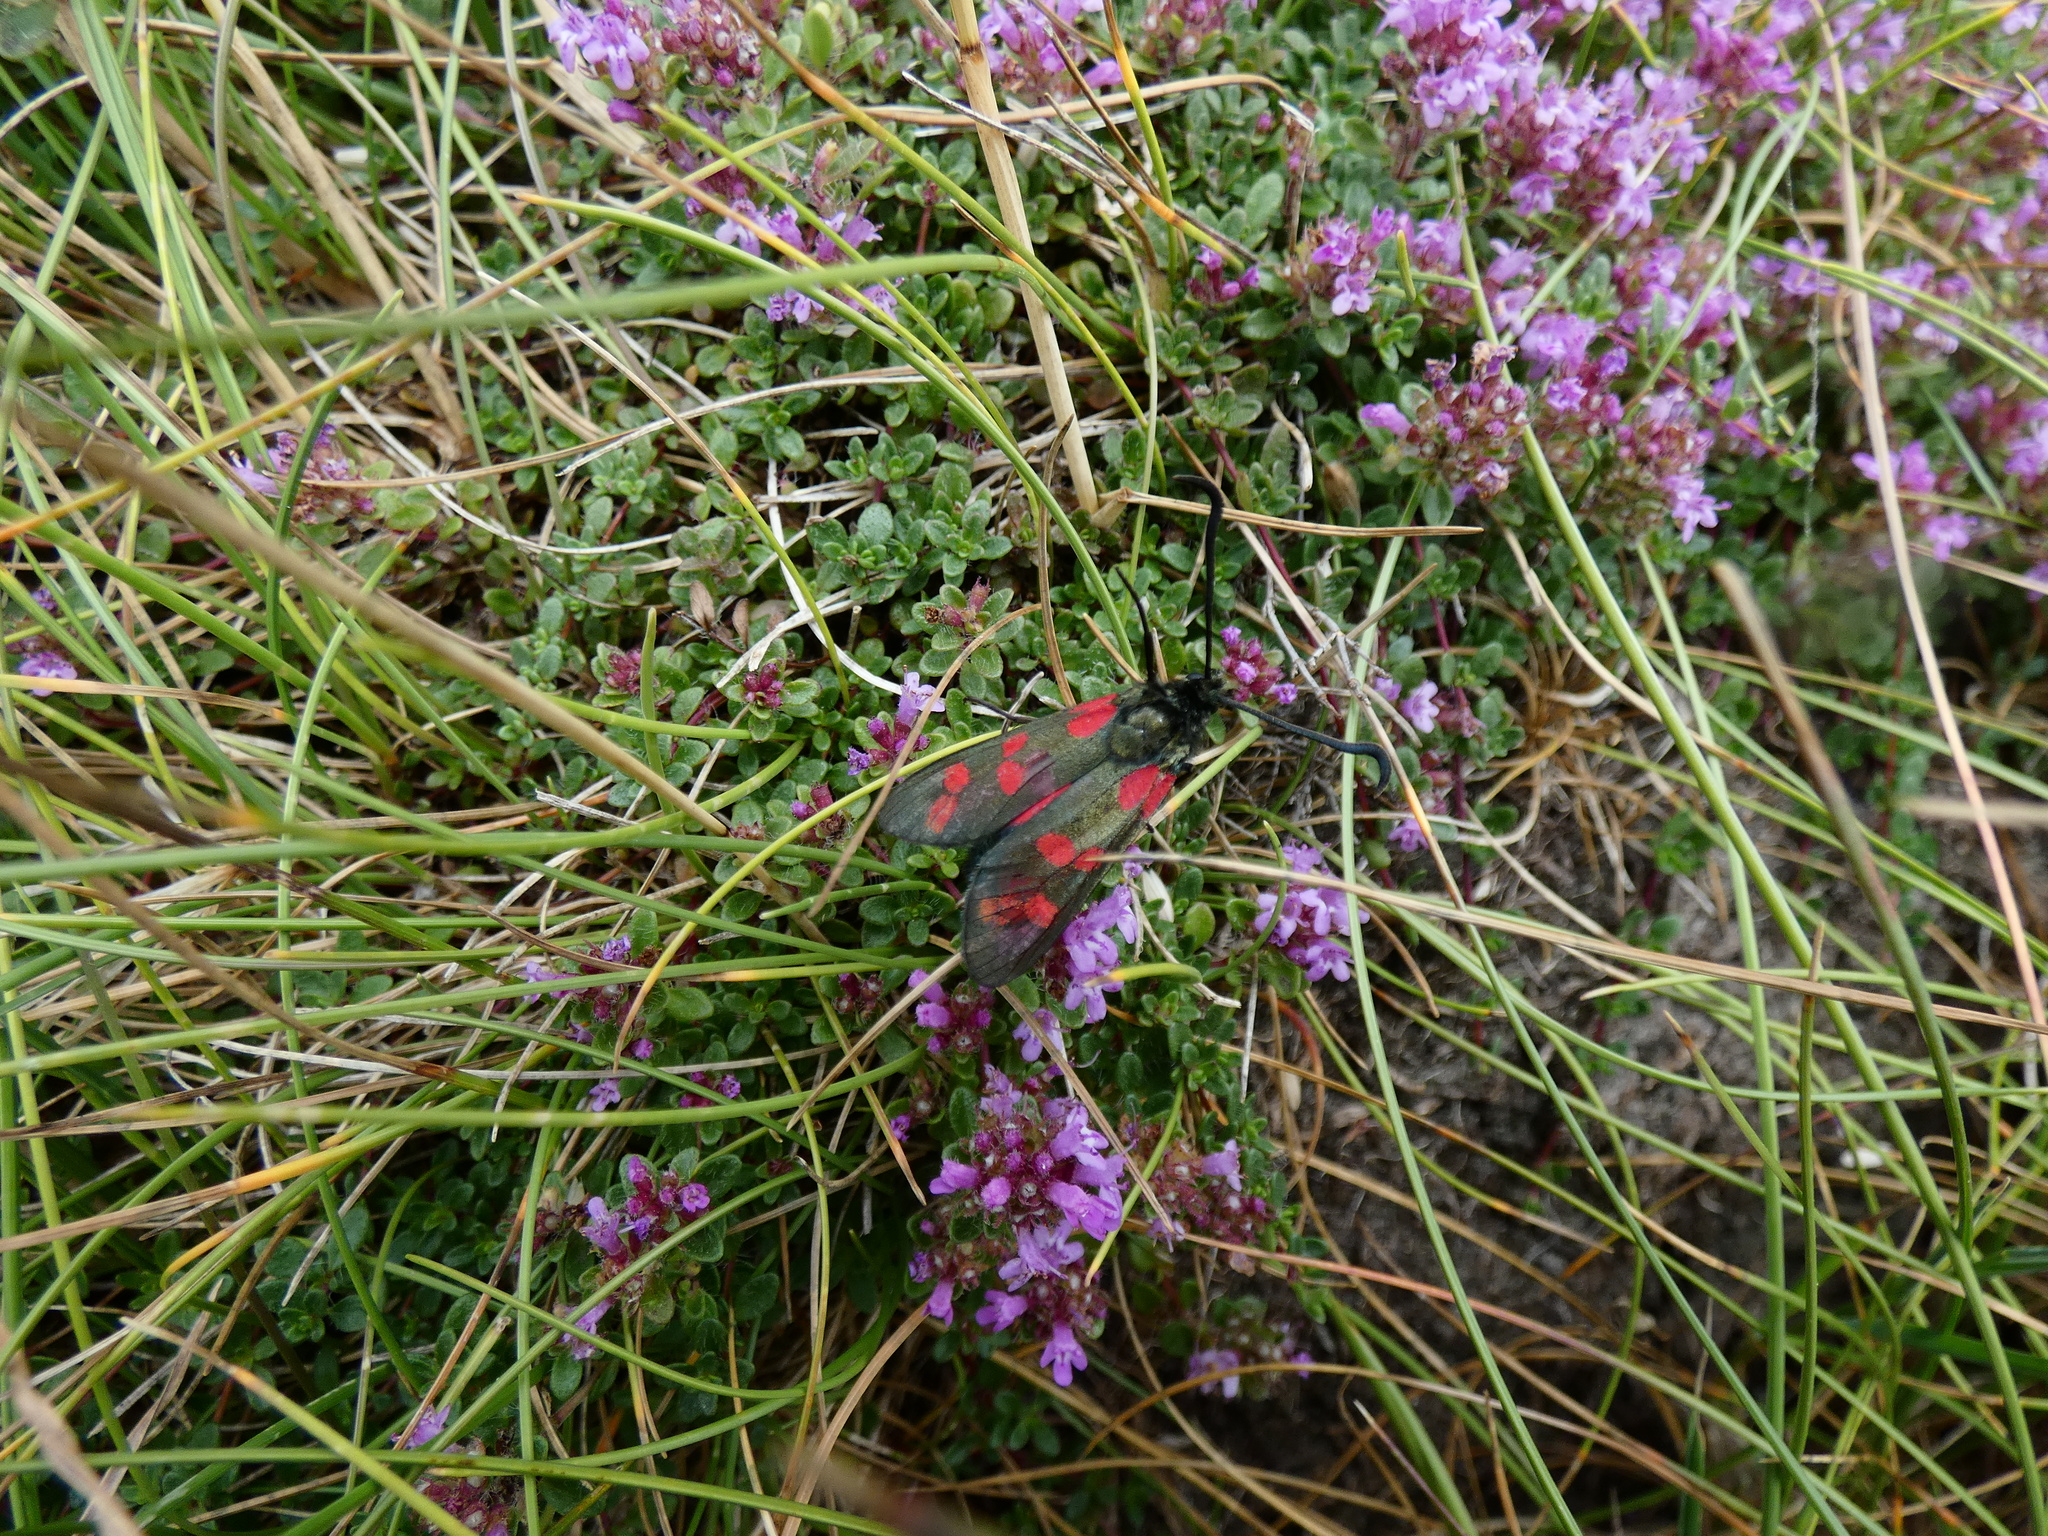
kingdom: Animalia
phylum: Arthropoda
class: Insecta
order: Lepidoptera
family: Zygaenidae
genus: Zygaena
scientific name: Zygaena filipendulae
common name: Six-spot burnet
